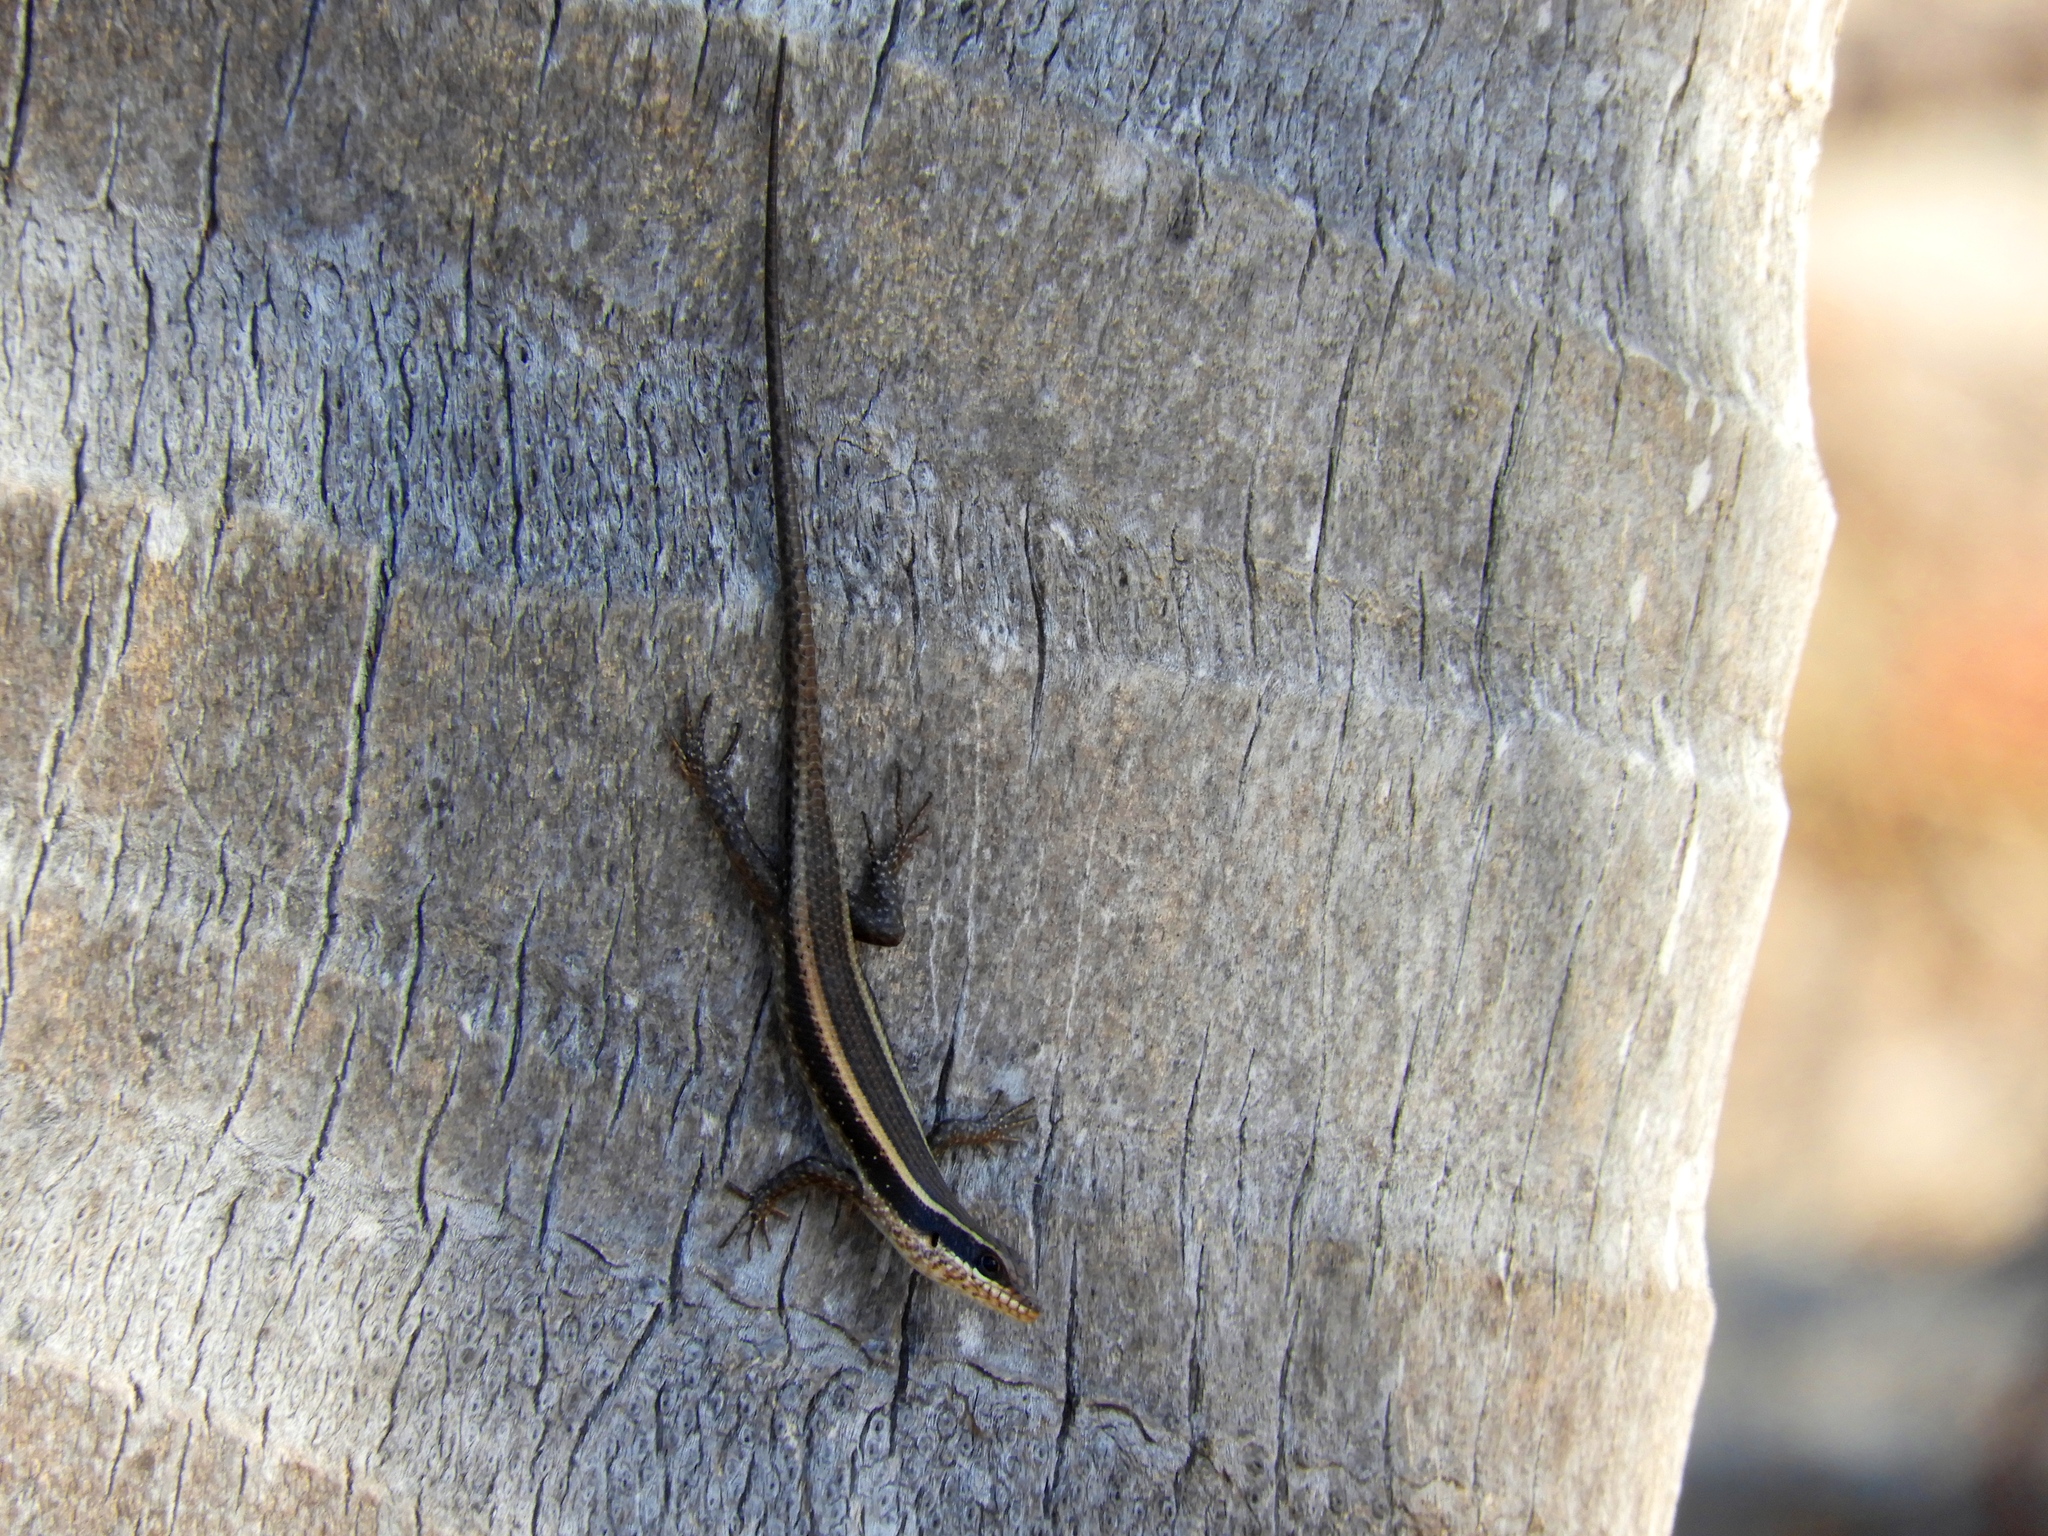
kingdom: Animalia
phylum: Chordata
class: Squamata
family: Scincidae
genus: Trachylepis
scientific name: Trachylepis striata
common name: African striped mabuya
